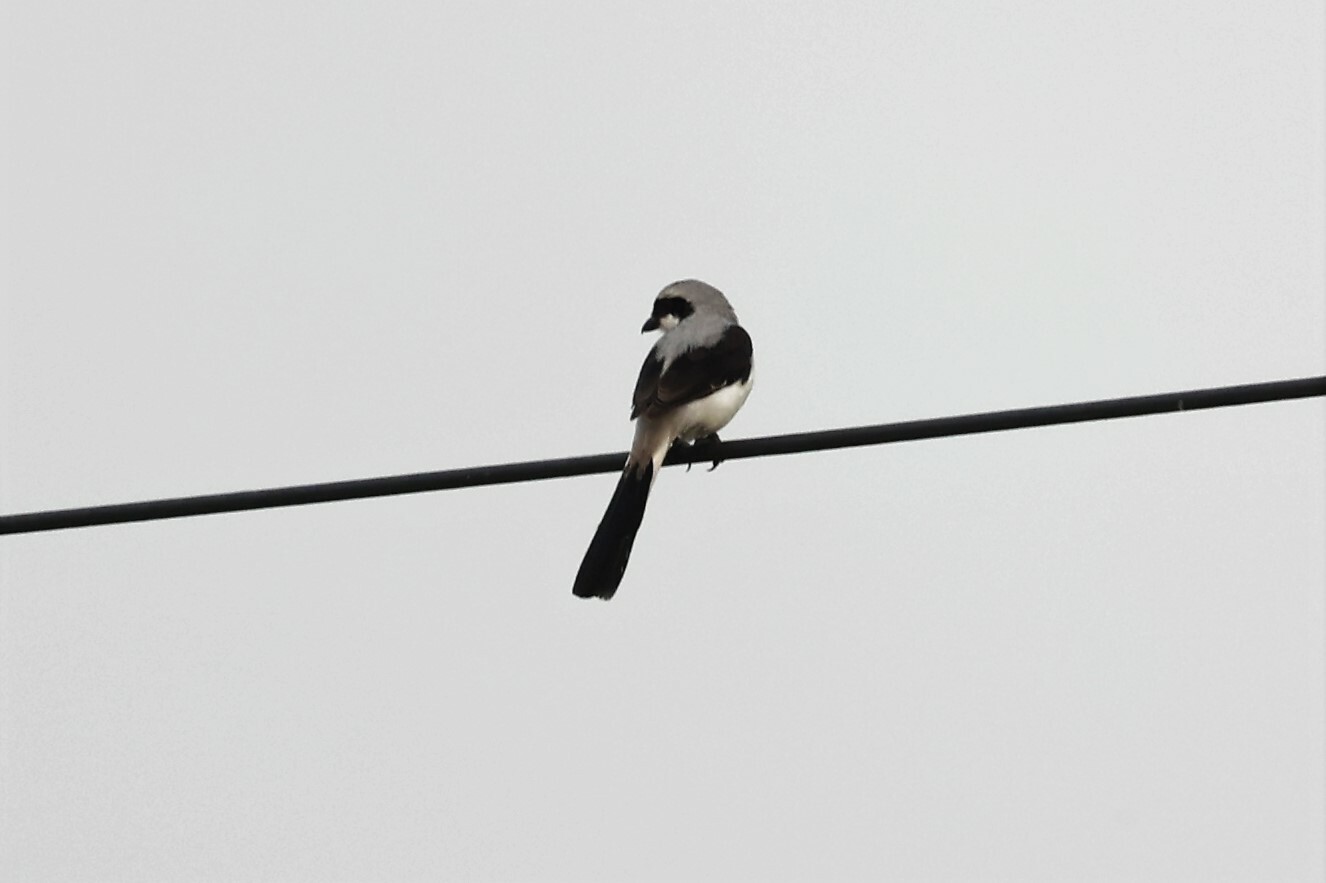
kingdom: Animalia
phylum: Chordata
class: Aves
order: Passeriformes
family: Laniidae
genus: Lanius
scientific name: Lanius excubitoroides
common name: Grey-backed fiscal
